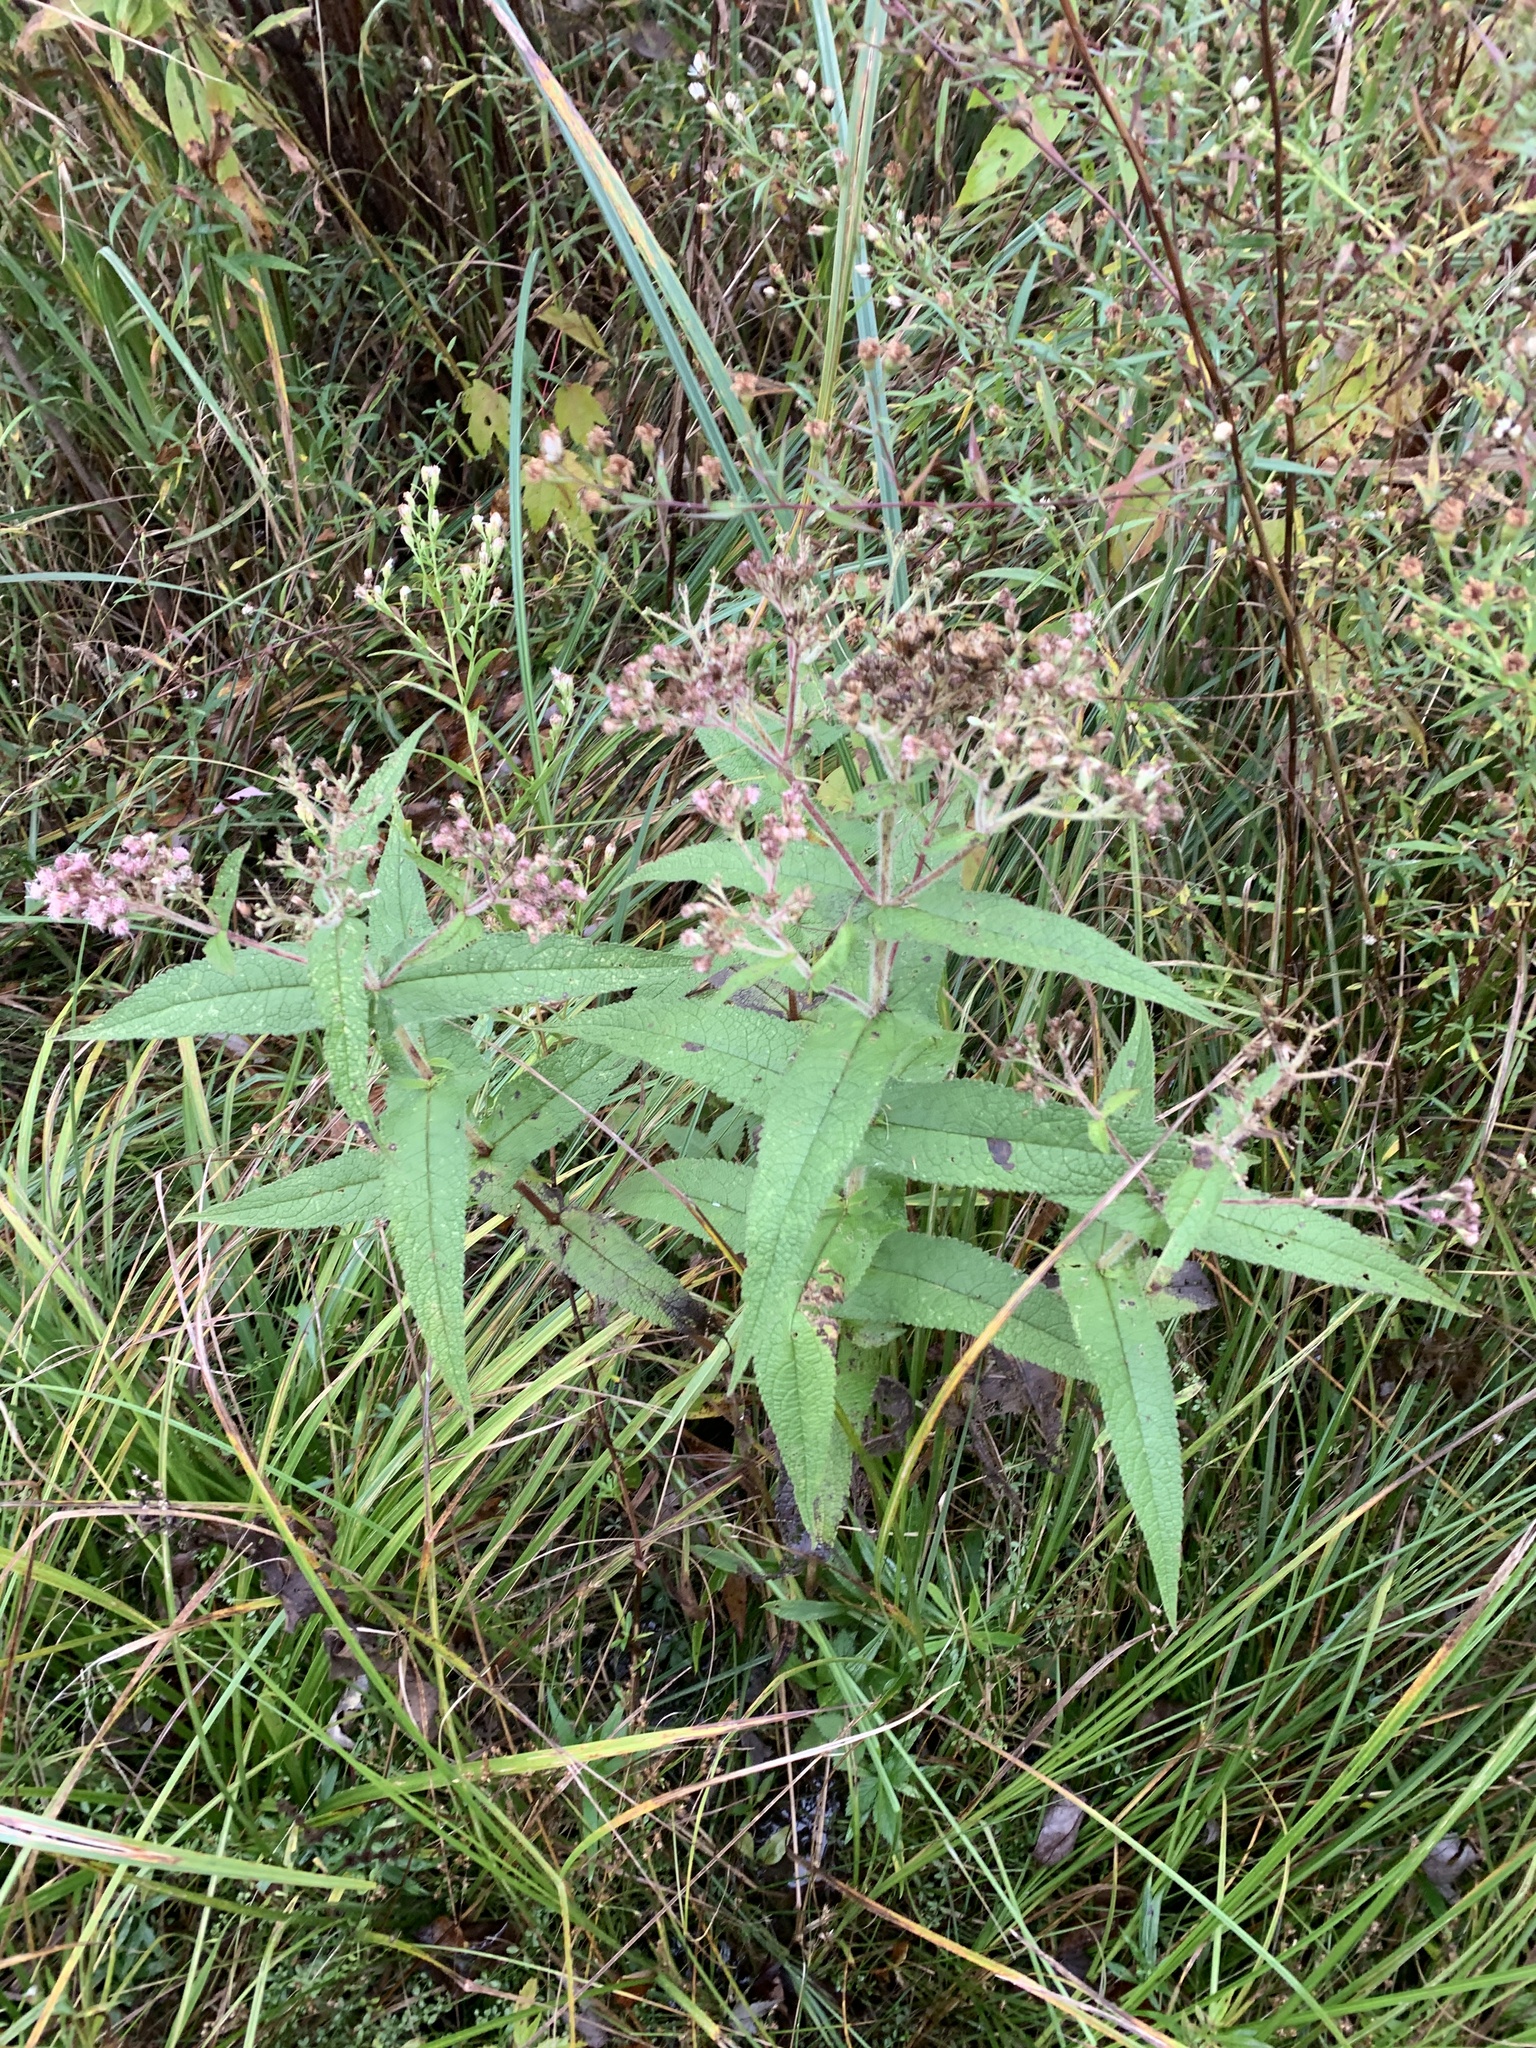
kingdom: Plantae
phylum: Tracheophyta
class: Magnoliopsida
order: Asterales
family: Asteraceae
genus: Eupatorium
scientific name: Eupatorium perfoliatum
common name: Boneset
